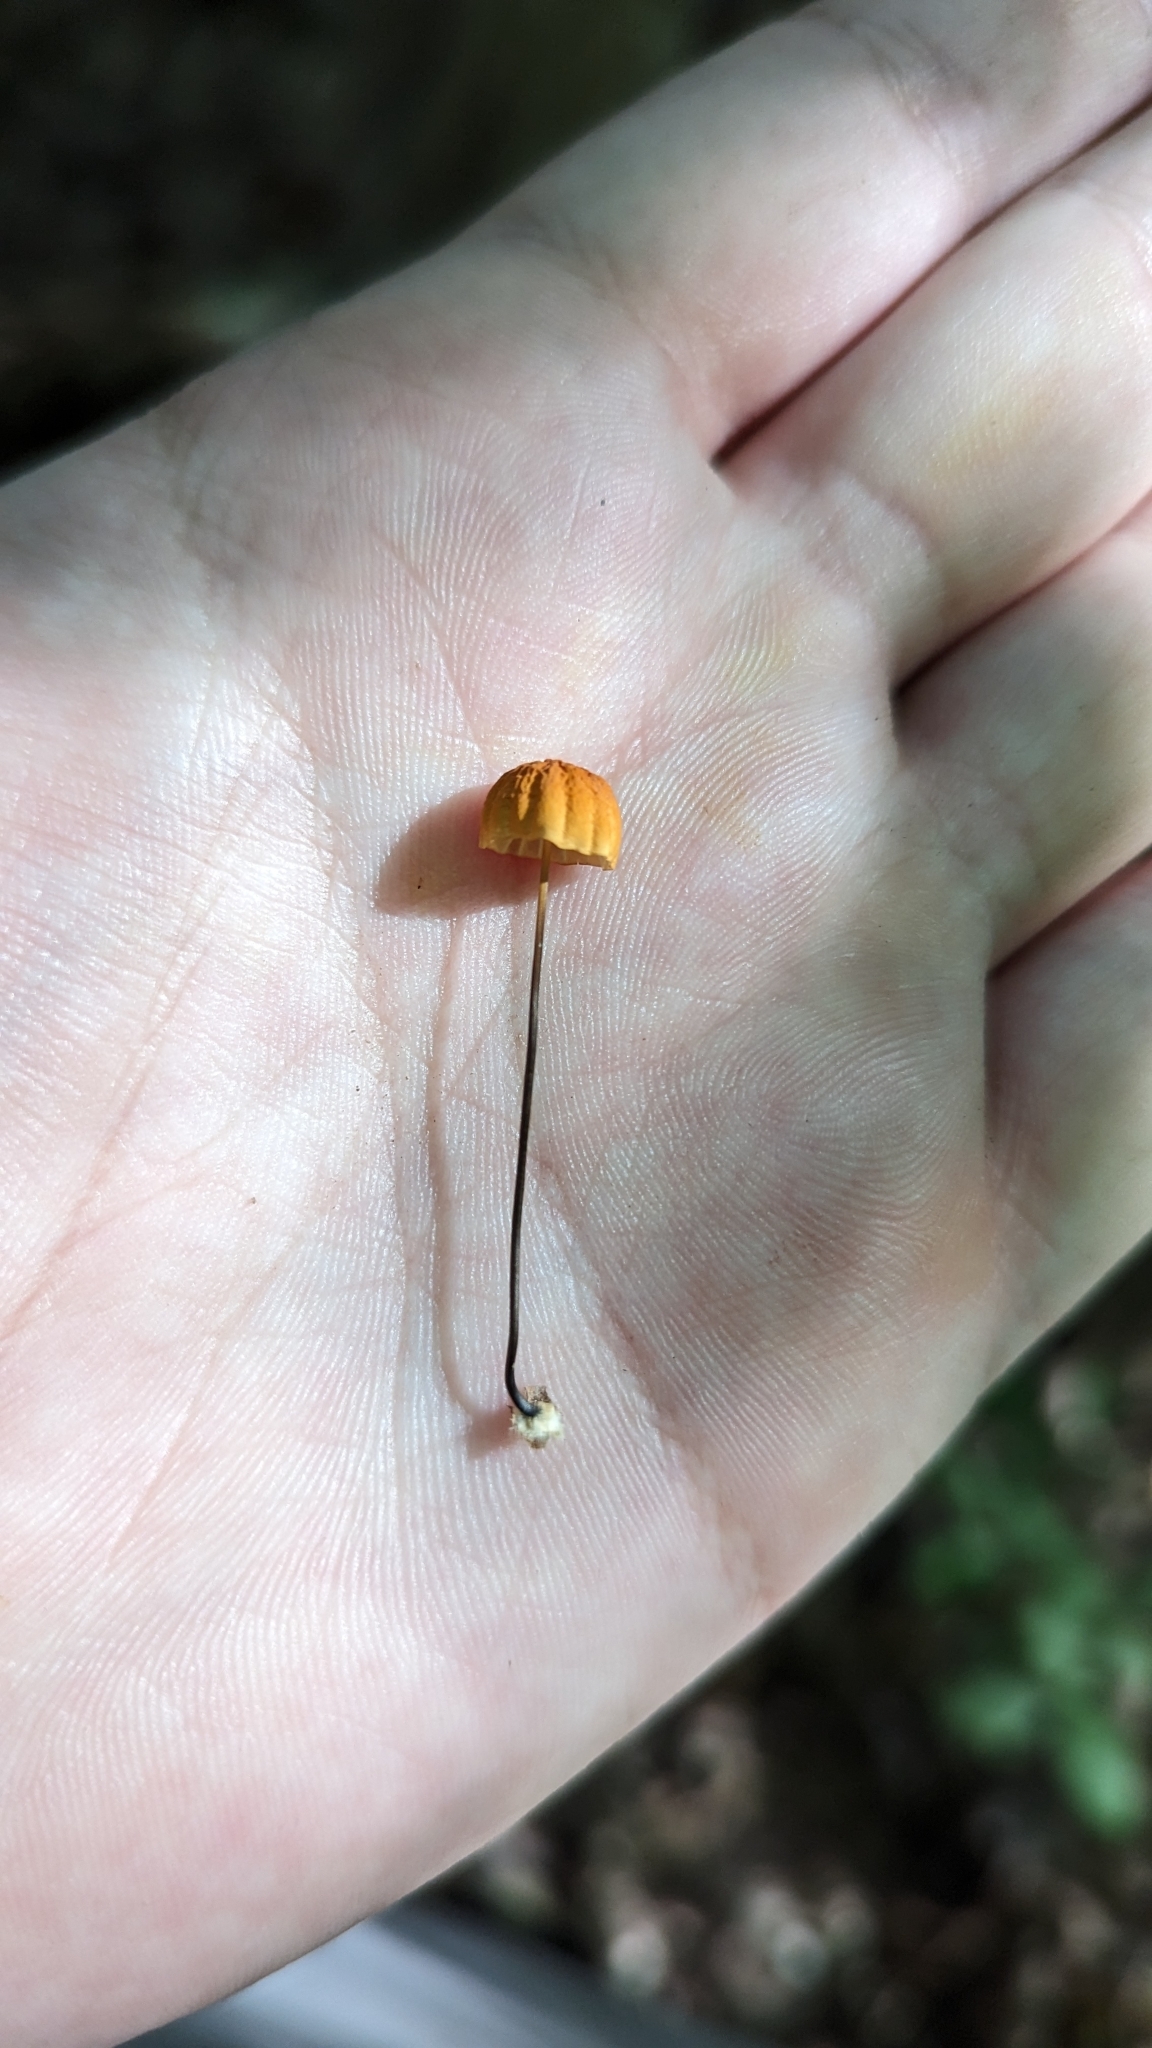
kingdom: Fungi
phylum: Basidiomycota
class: Agaricomycetes
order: Agaricales
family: Marasmiaceae
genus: Marasmius
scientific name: Marasmius siccus
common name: Orange pinwheel
